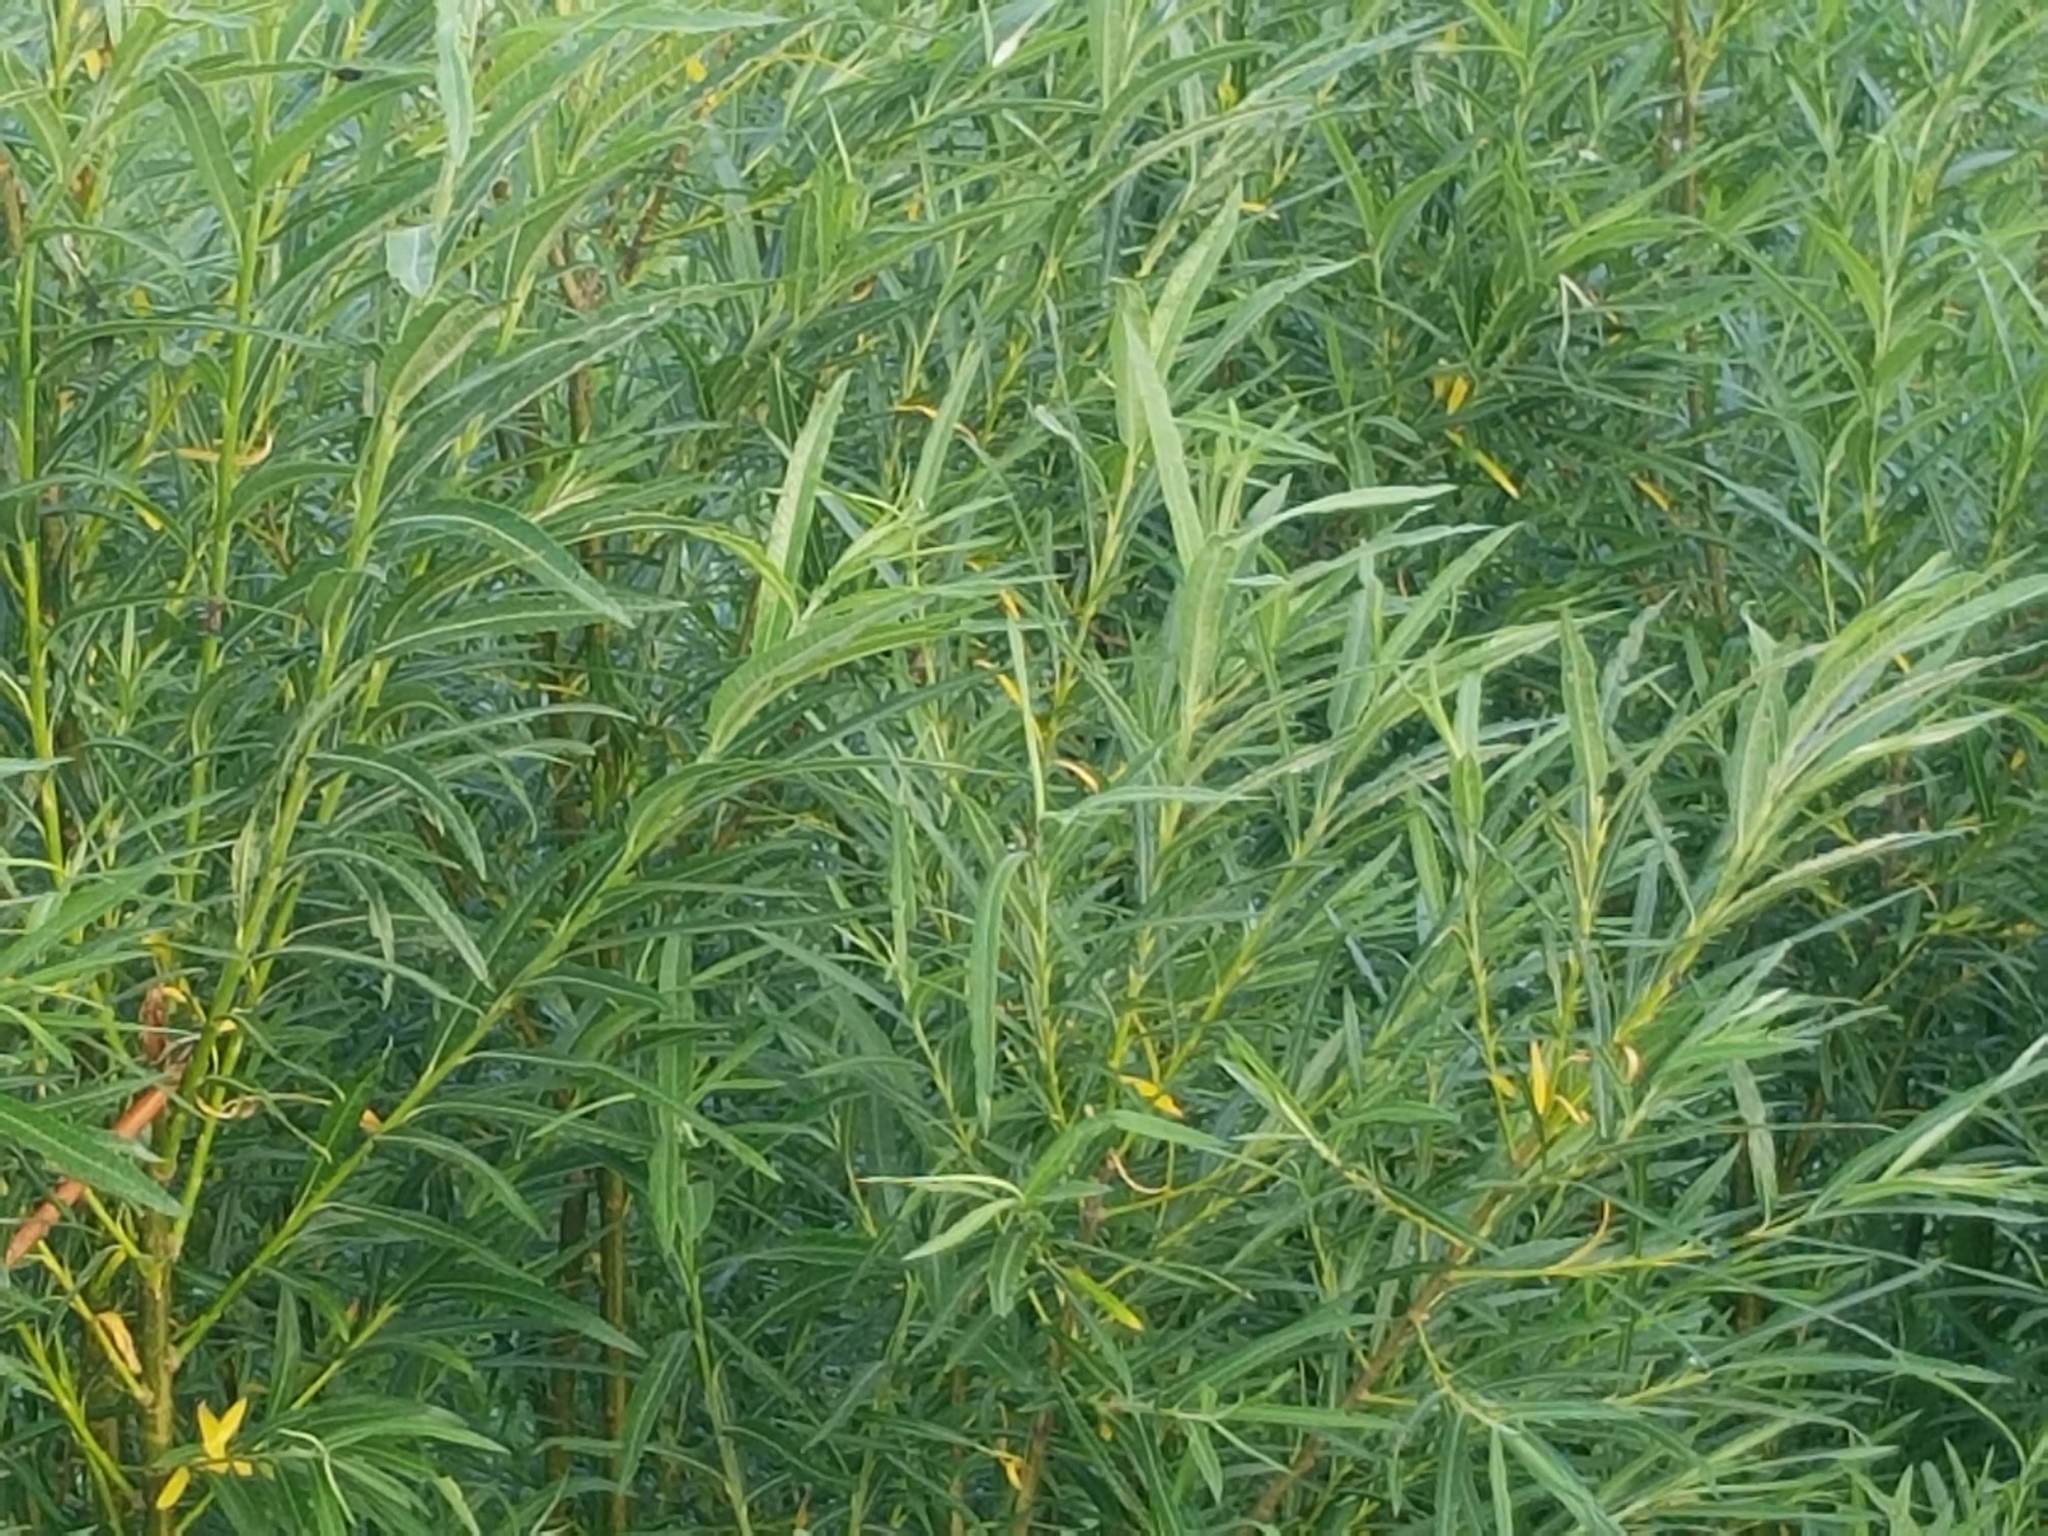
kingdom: Plantae
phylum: Tracheophyta
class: Magnoliopsida
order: Malpighiales
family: Salicaceae
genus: Salix
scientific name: Salix viminalis
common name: Osier
